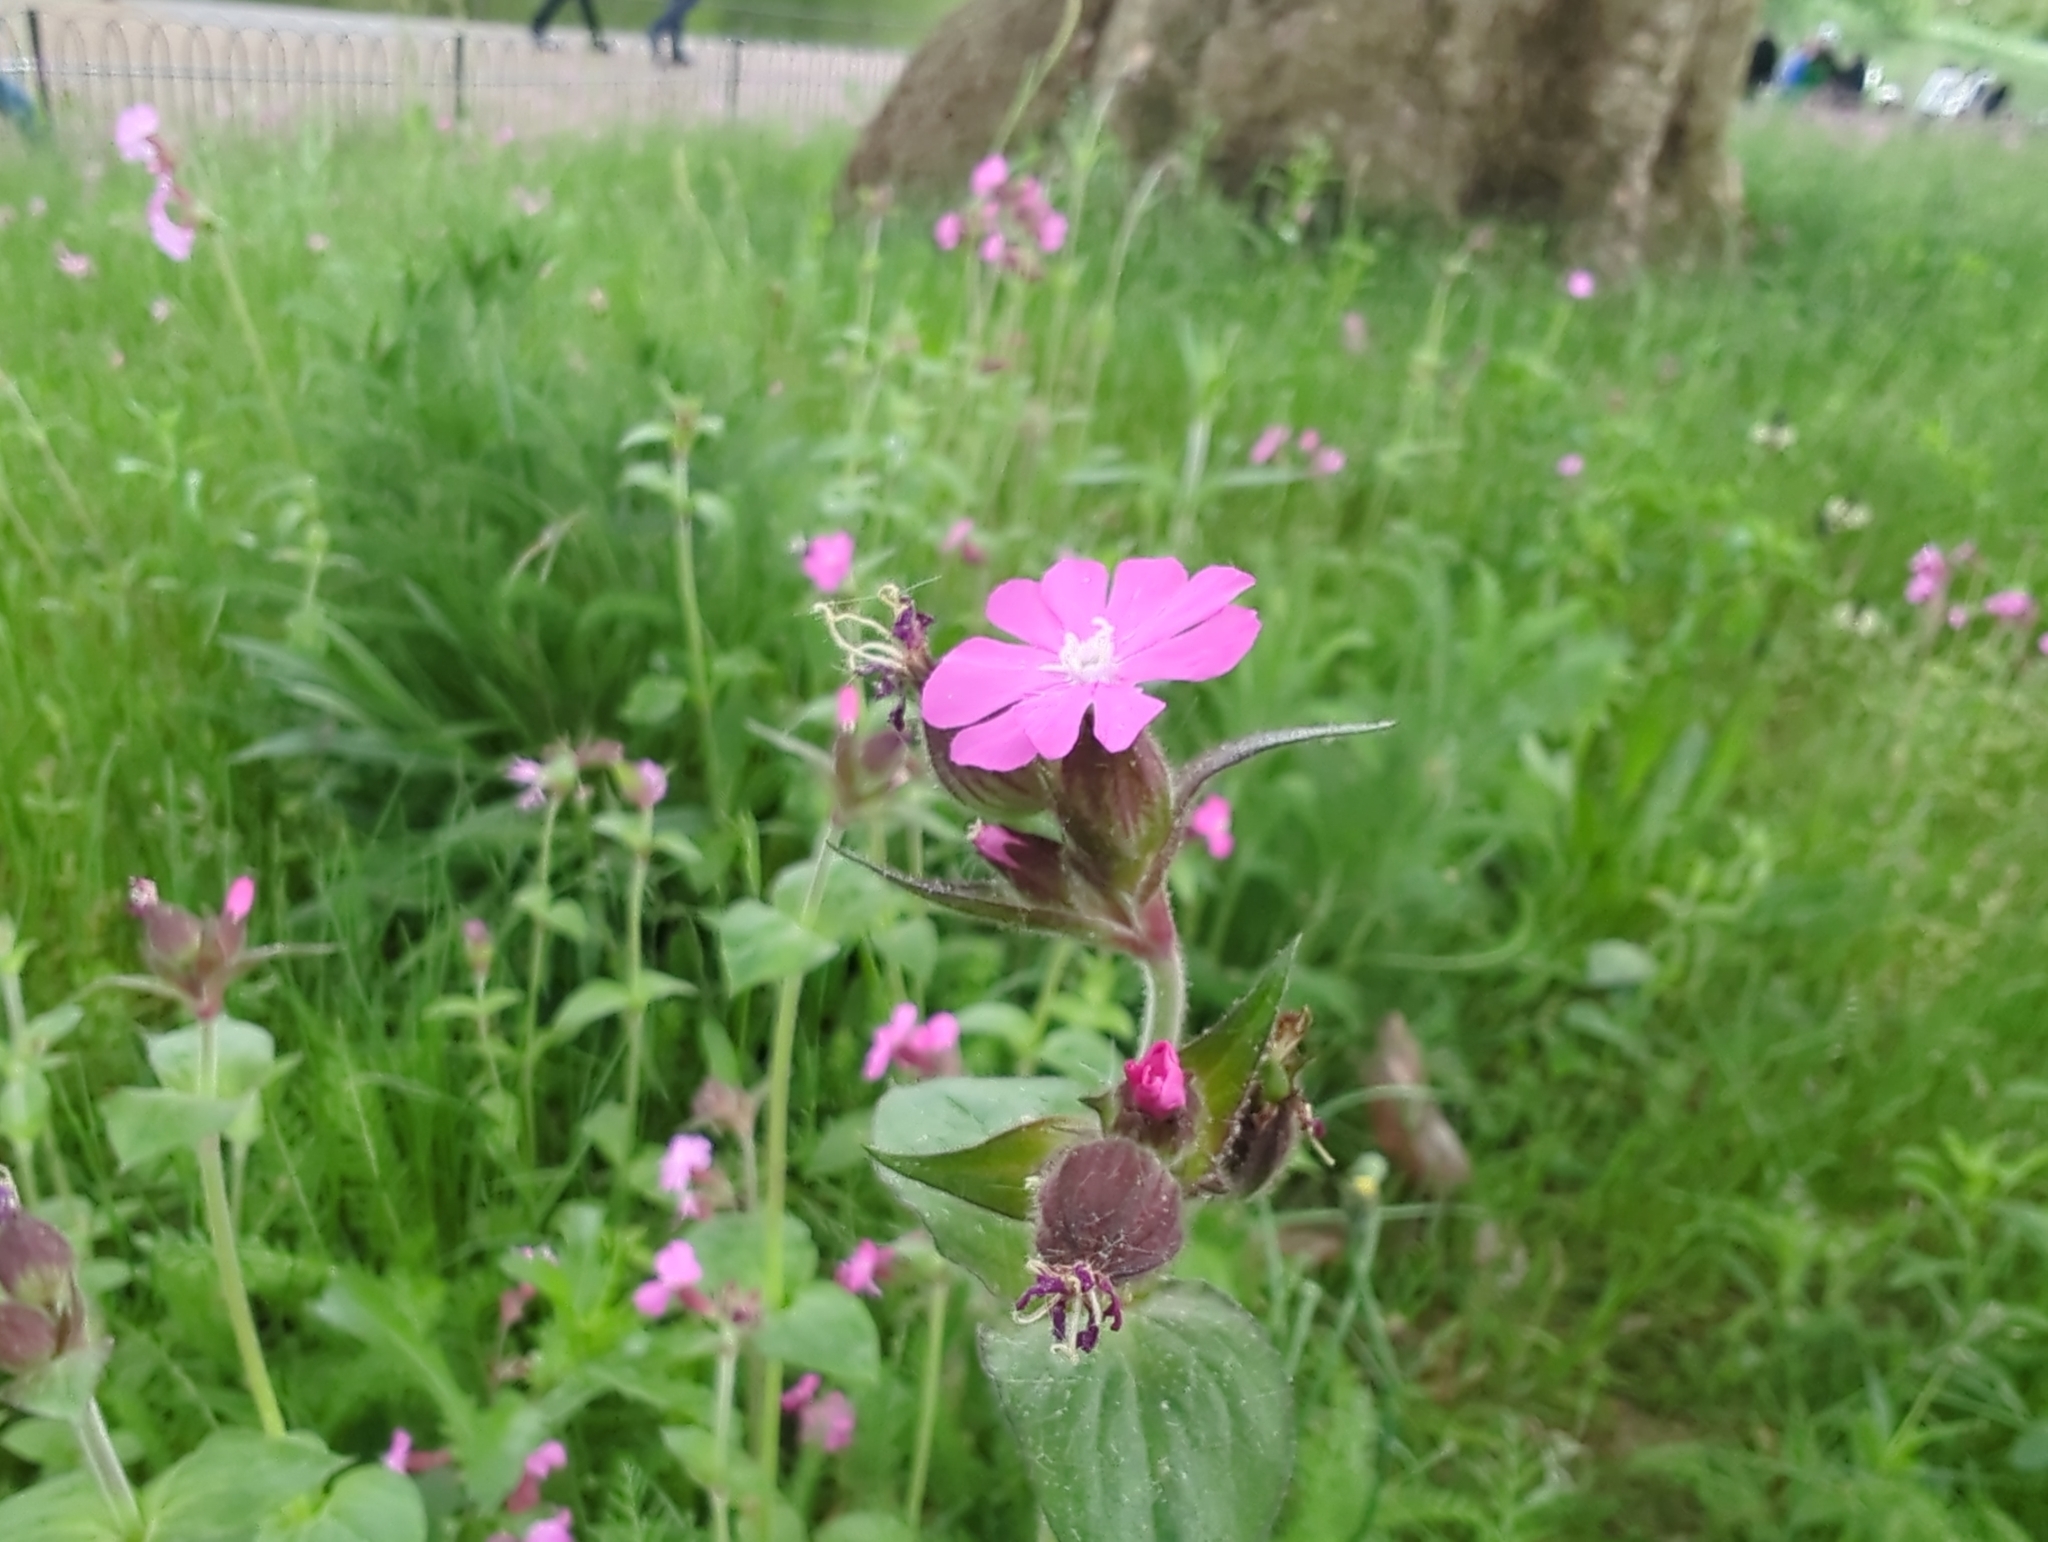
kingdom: Plantae
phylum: Tracheophyta
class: Magnoliopsida
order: Caryophyllales
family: Caryophyllaceae
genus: Silene
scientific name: Silene dioica
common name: Red campion
